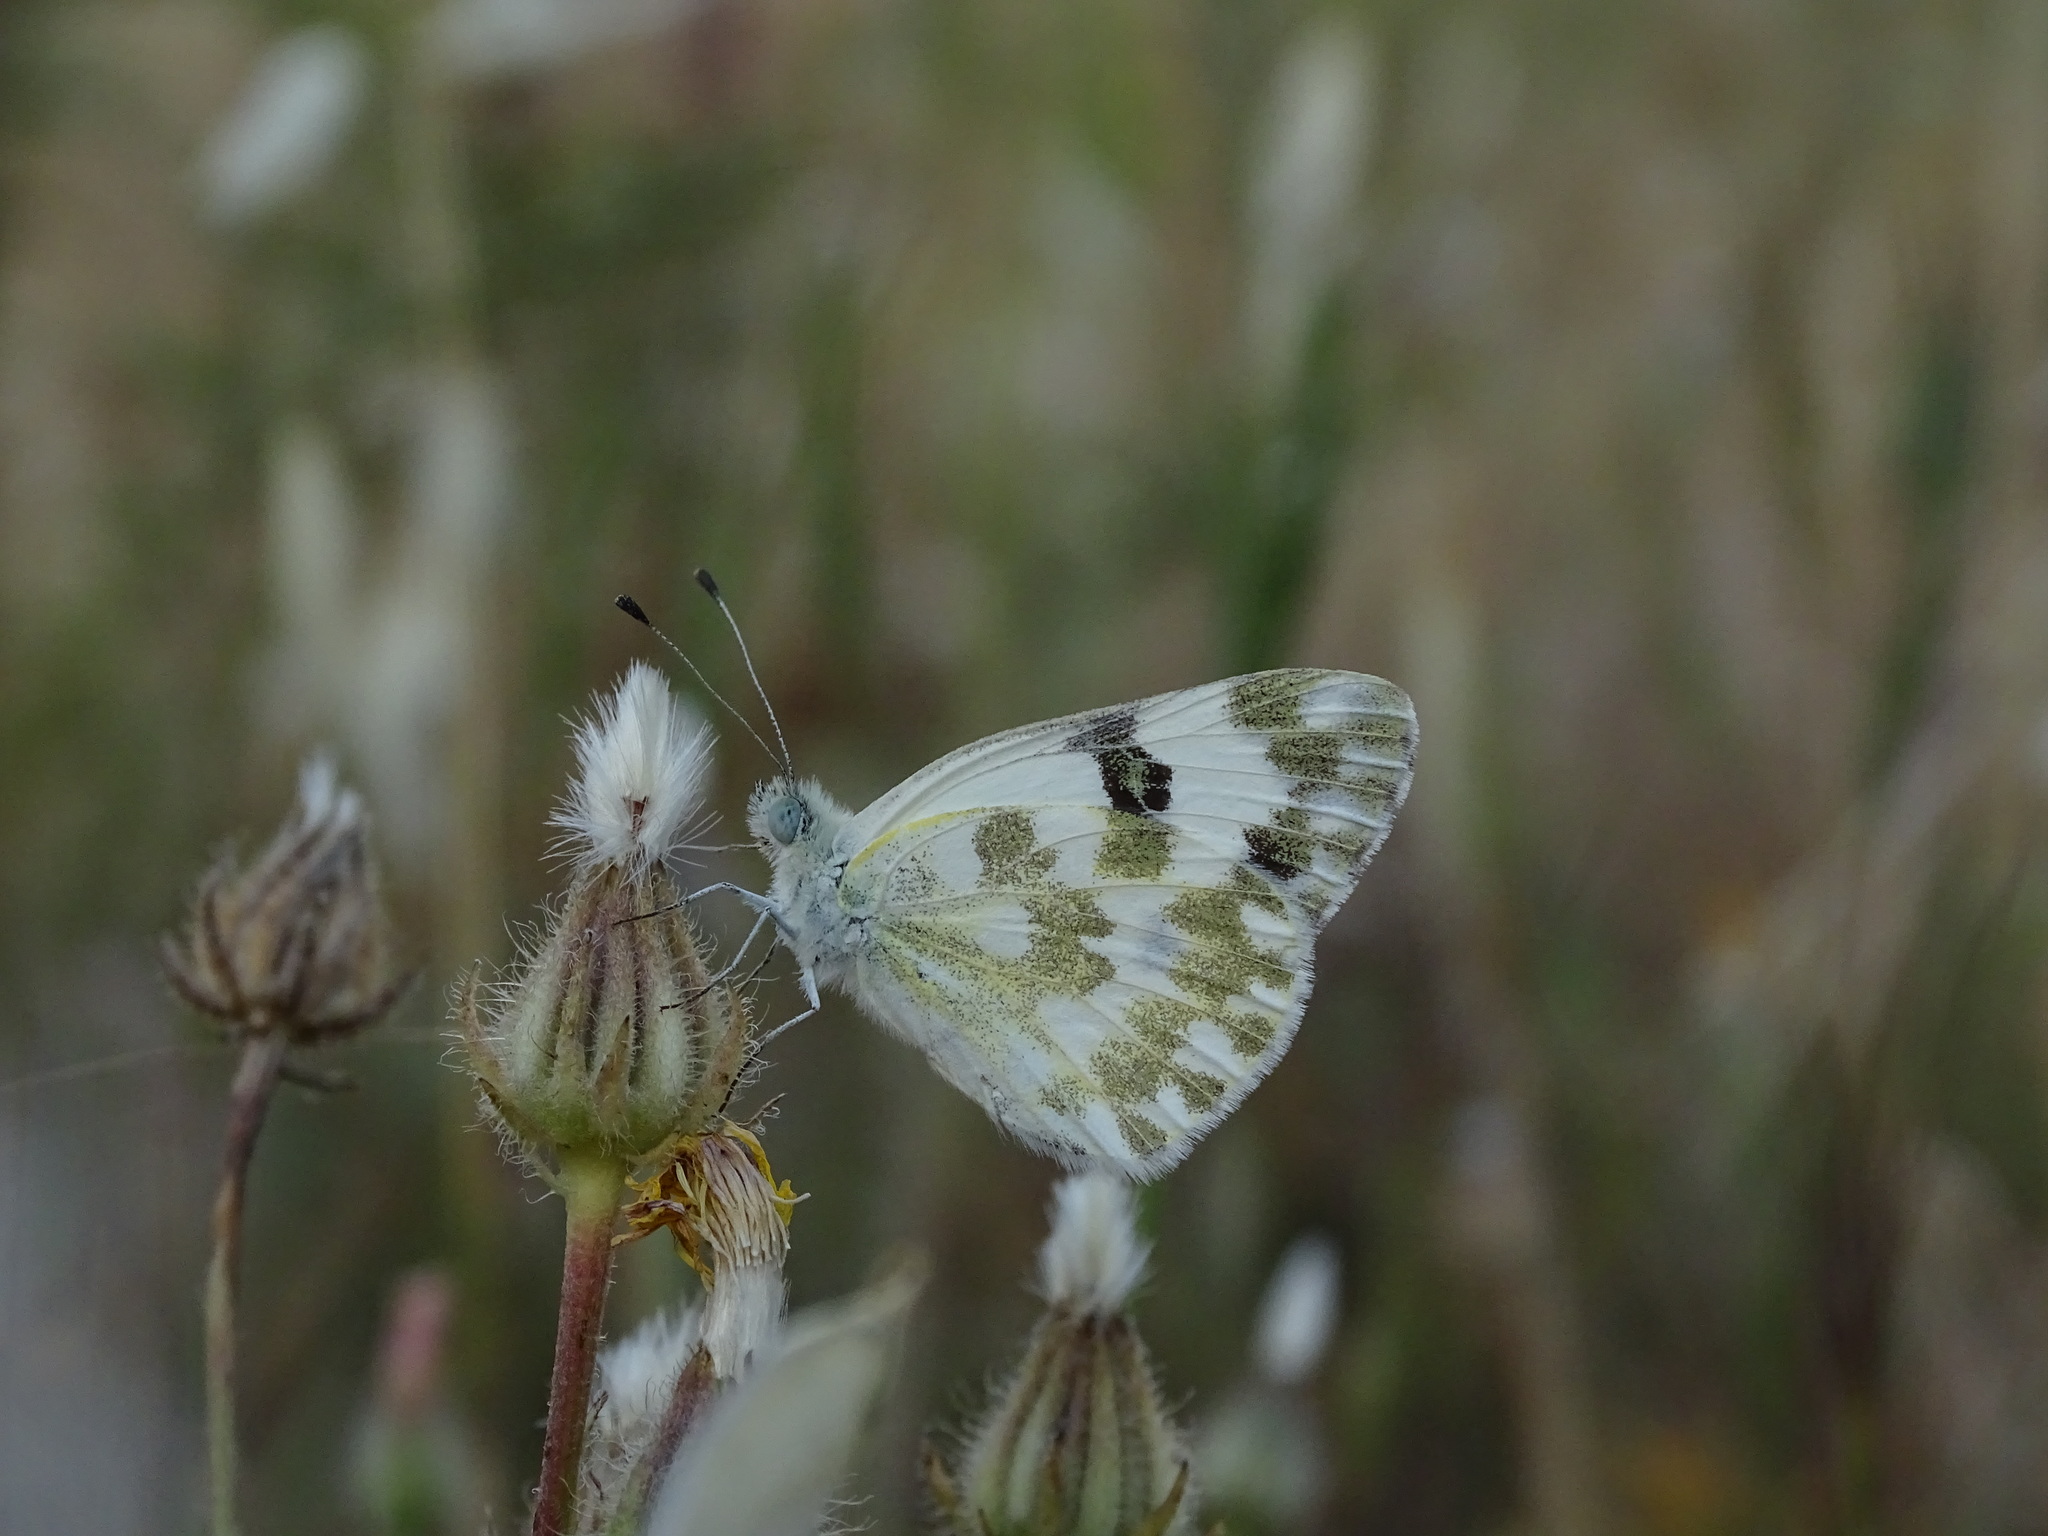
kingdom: Animalia
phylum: Arthropoda
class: Insecta
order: Lepidoptera
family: Pieridae
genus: Pontia
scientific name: Pontia daplidice
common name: Bath white
